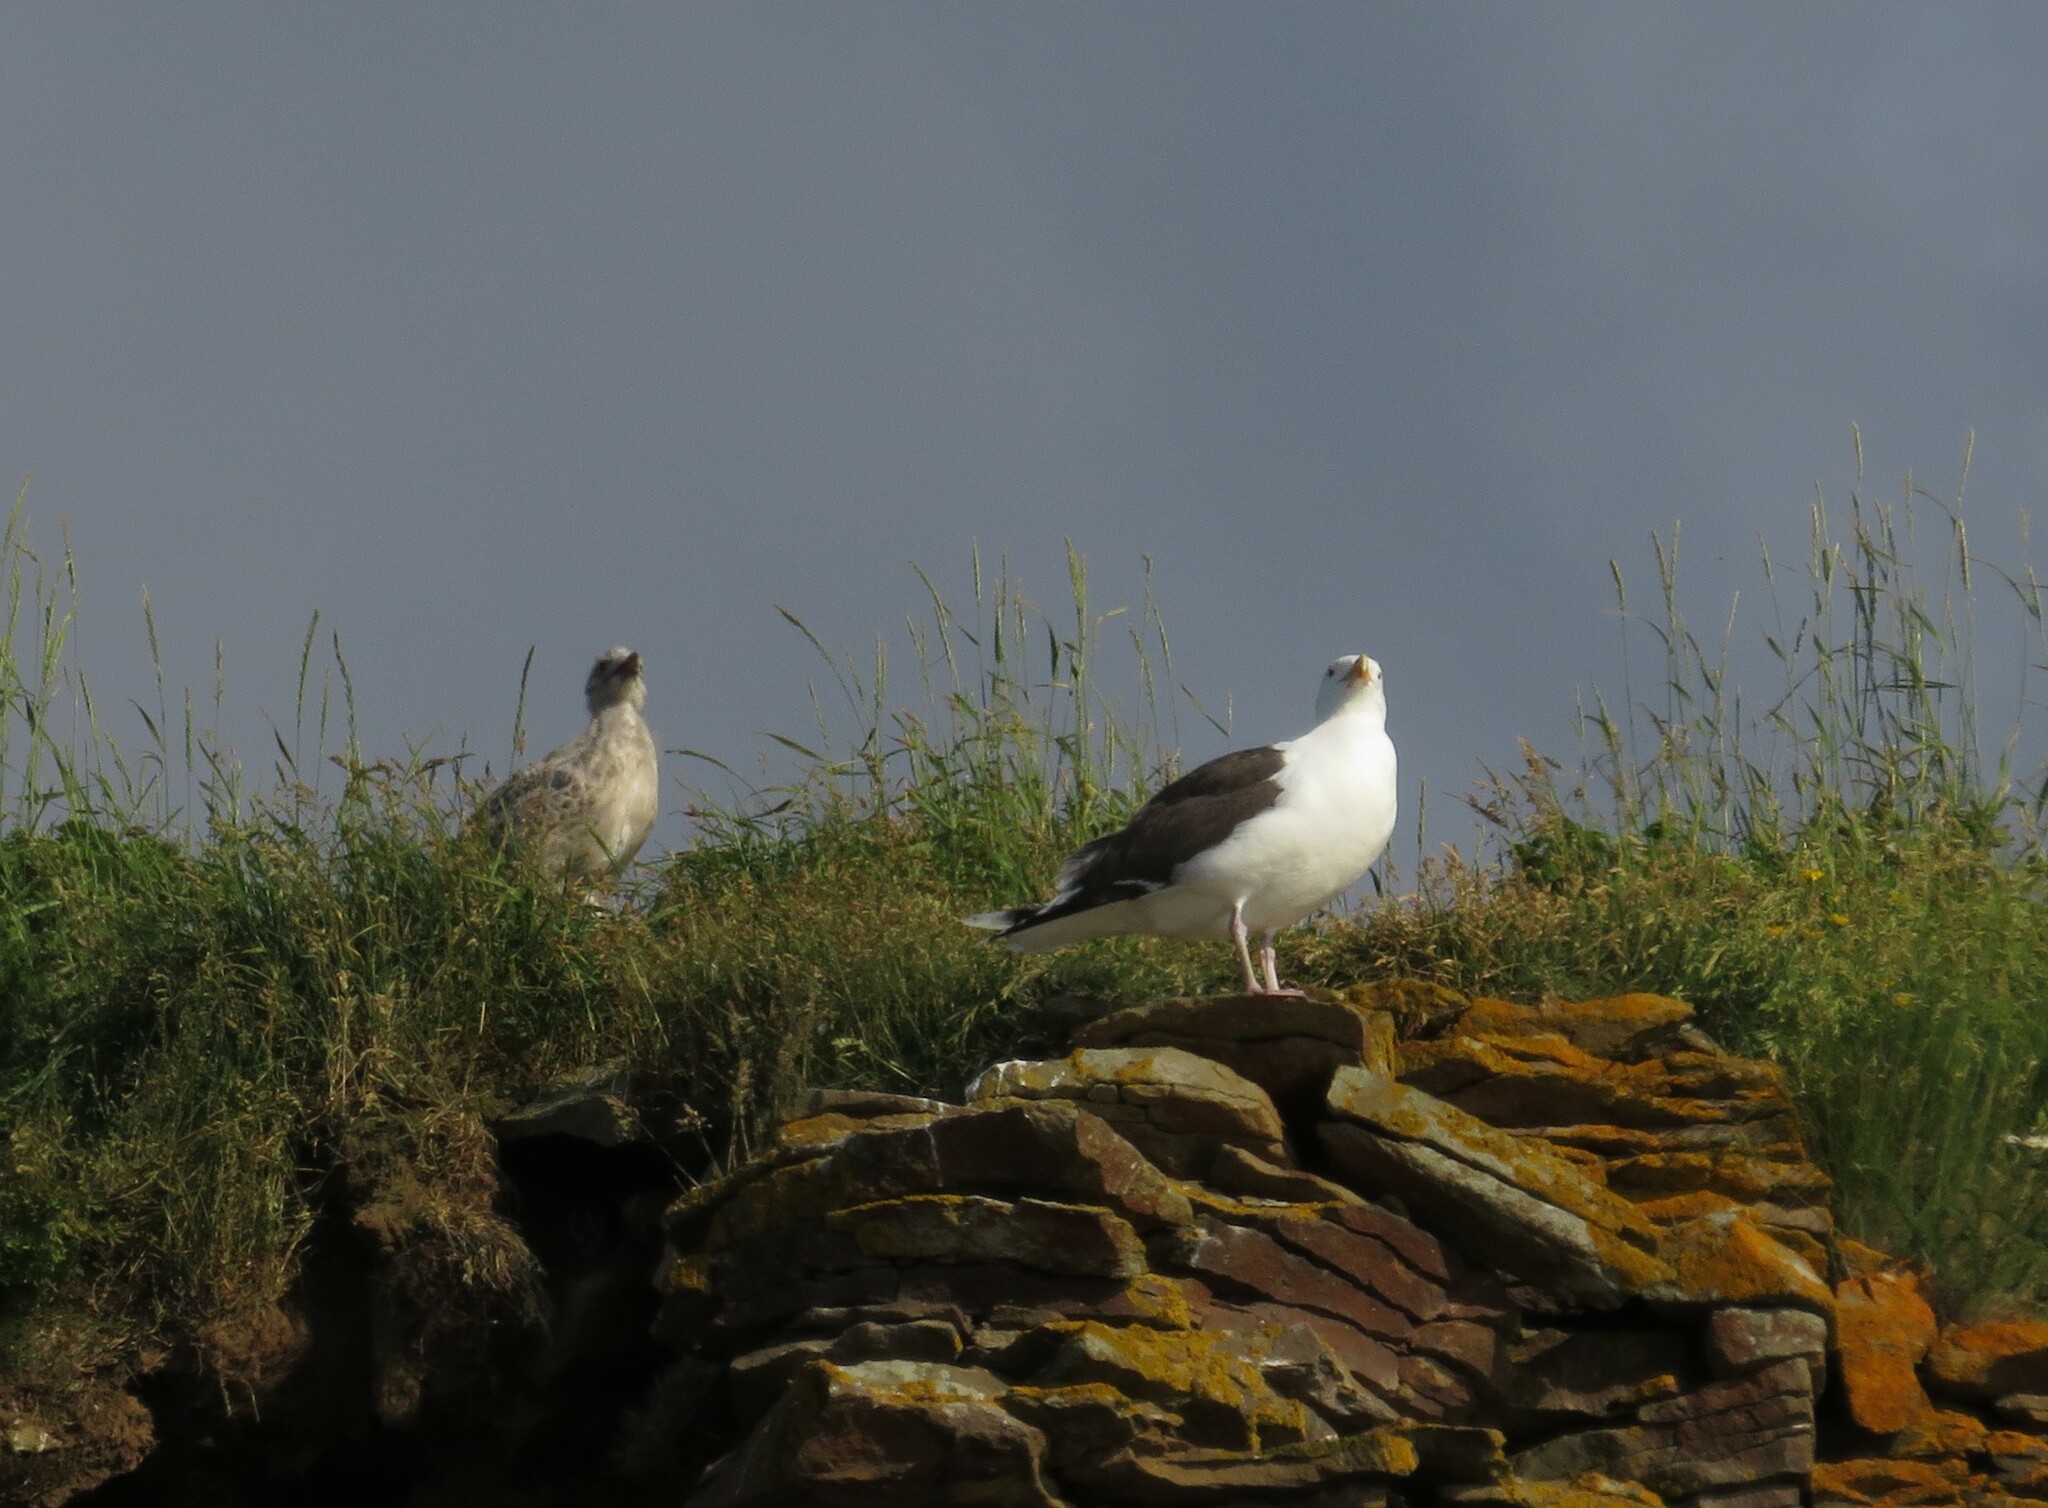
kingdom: Animalia
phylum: Chordata
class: Aves
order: Charadriiformes
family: Laridae
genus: Larus
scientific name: Larus marinus
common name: Great black-backed gull
